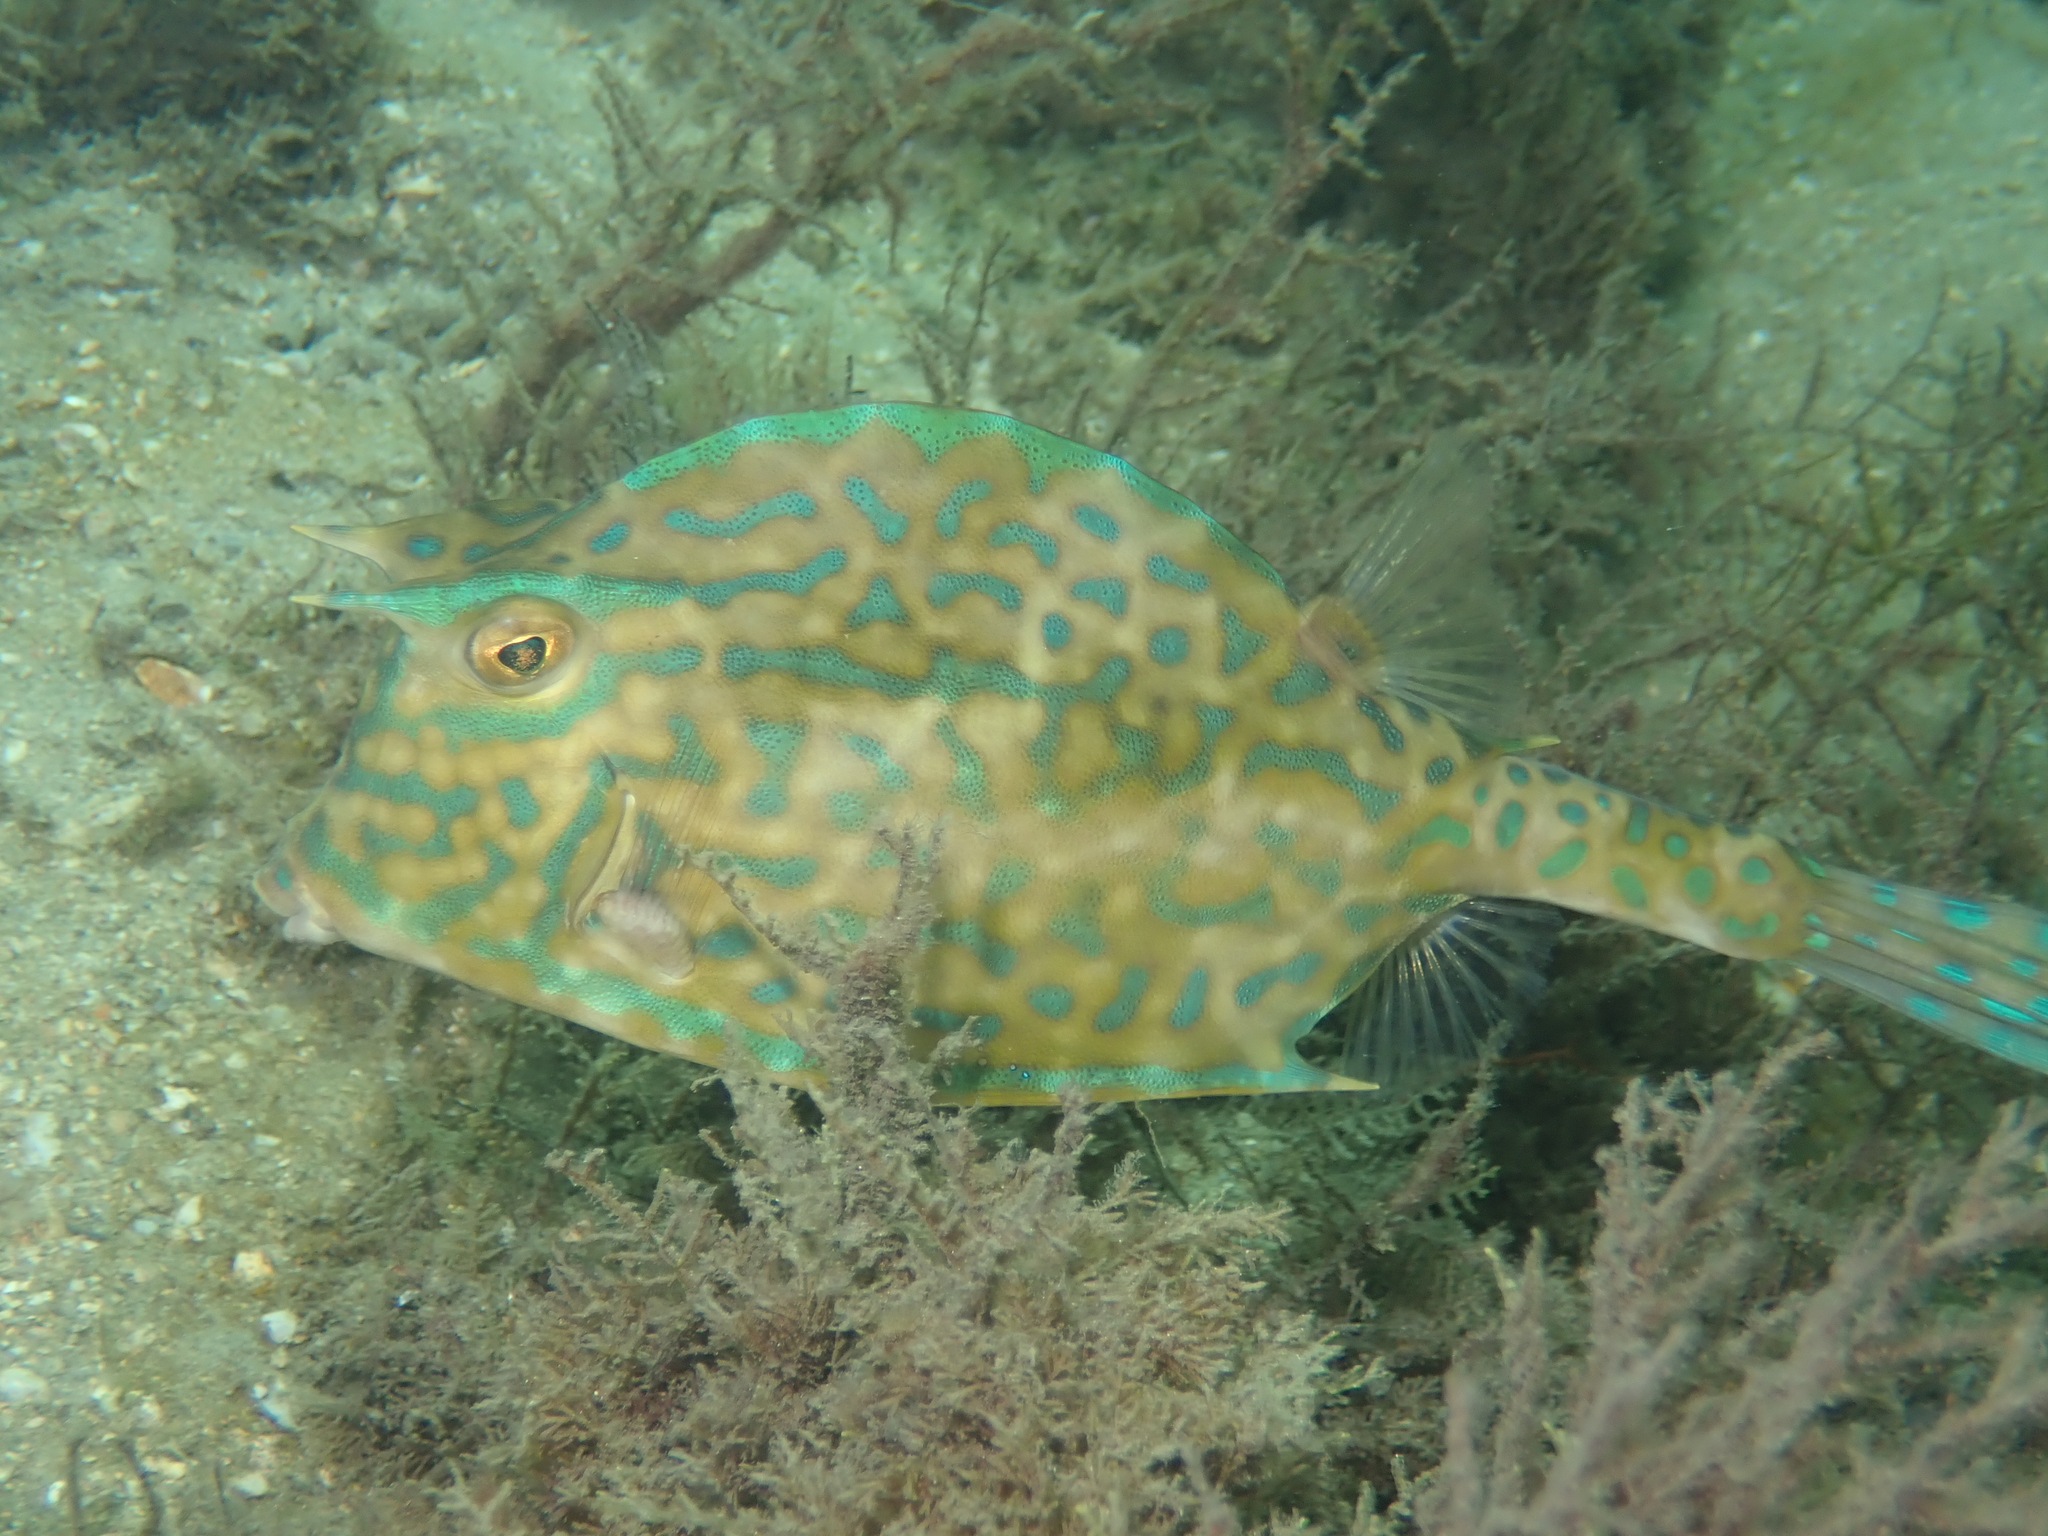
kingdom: Animalia
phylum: Chordata
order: Tetraodontiformes
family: Ostraciidae
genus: Acanthostracion
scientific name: Acanthostracion quadricornis
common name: Scrawled cowfish
